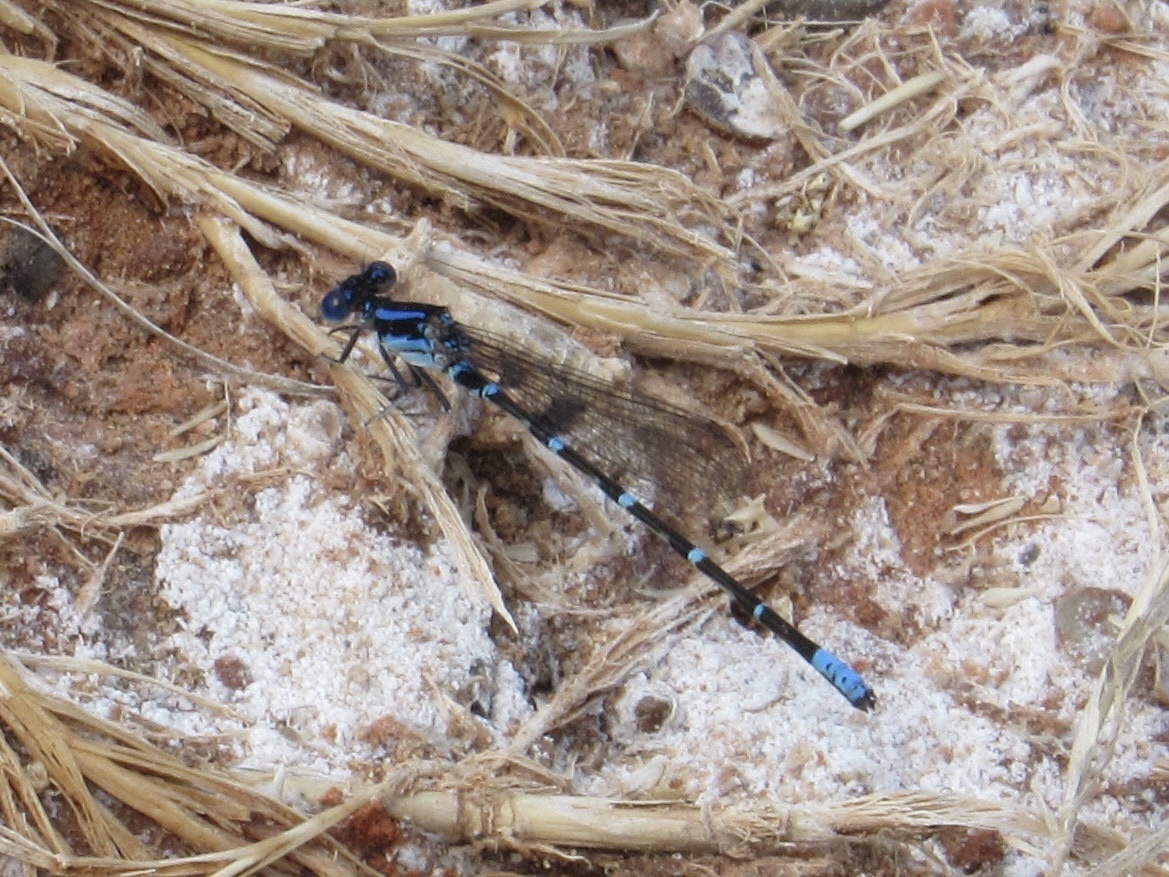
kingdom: Animalia
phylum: Arthropoda
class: Insecta
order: Odonata
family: Coenagrionidae
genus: Argia
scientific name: Argia sedula
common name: Blue-ringed dancer
